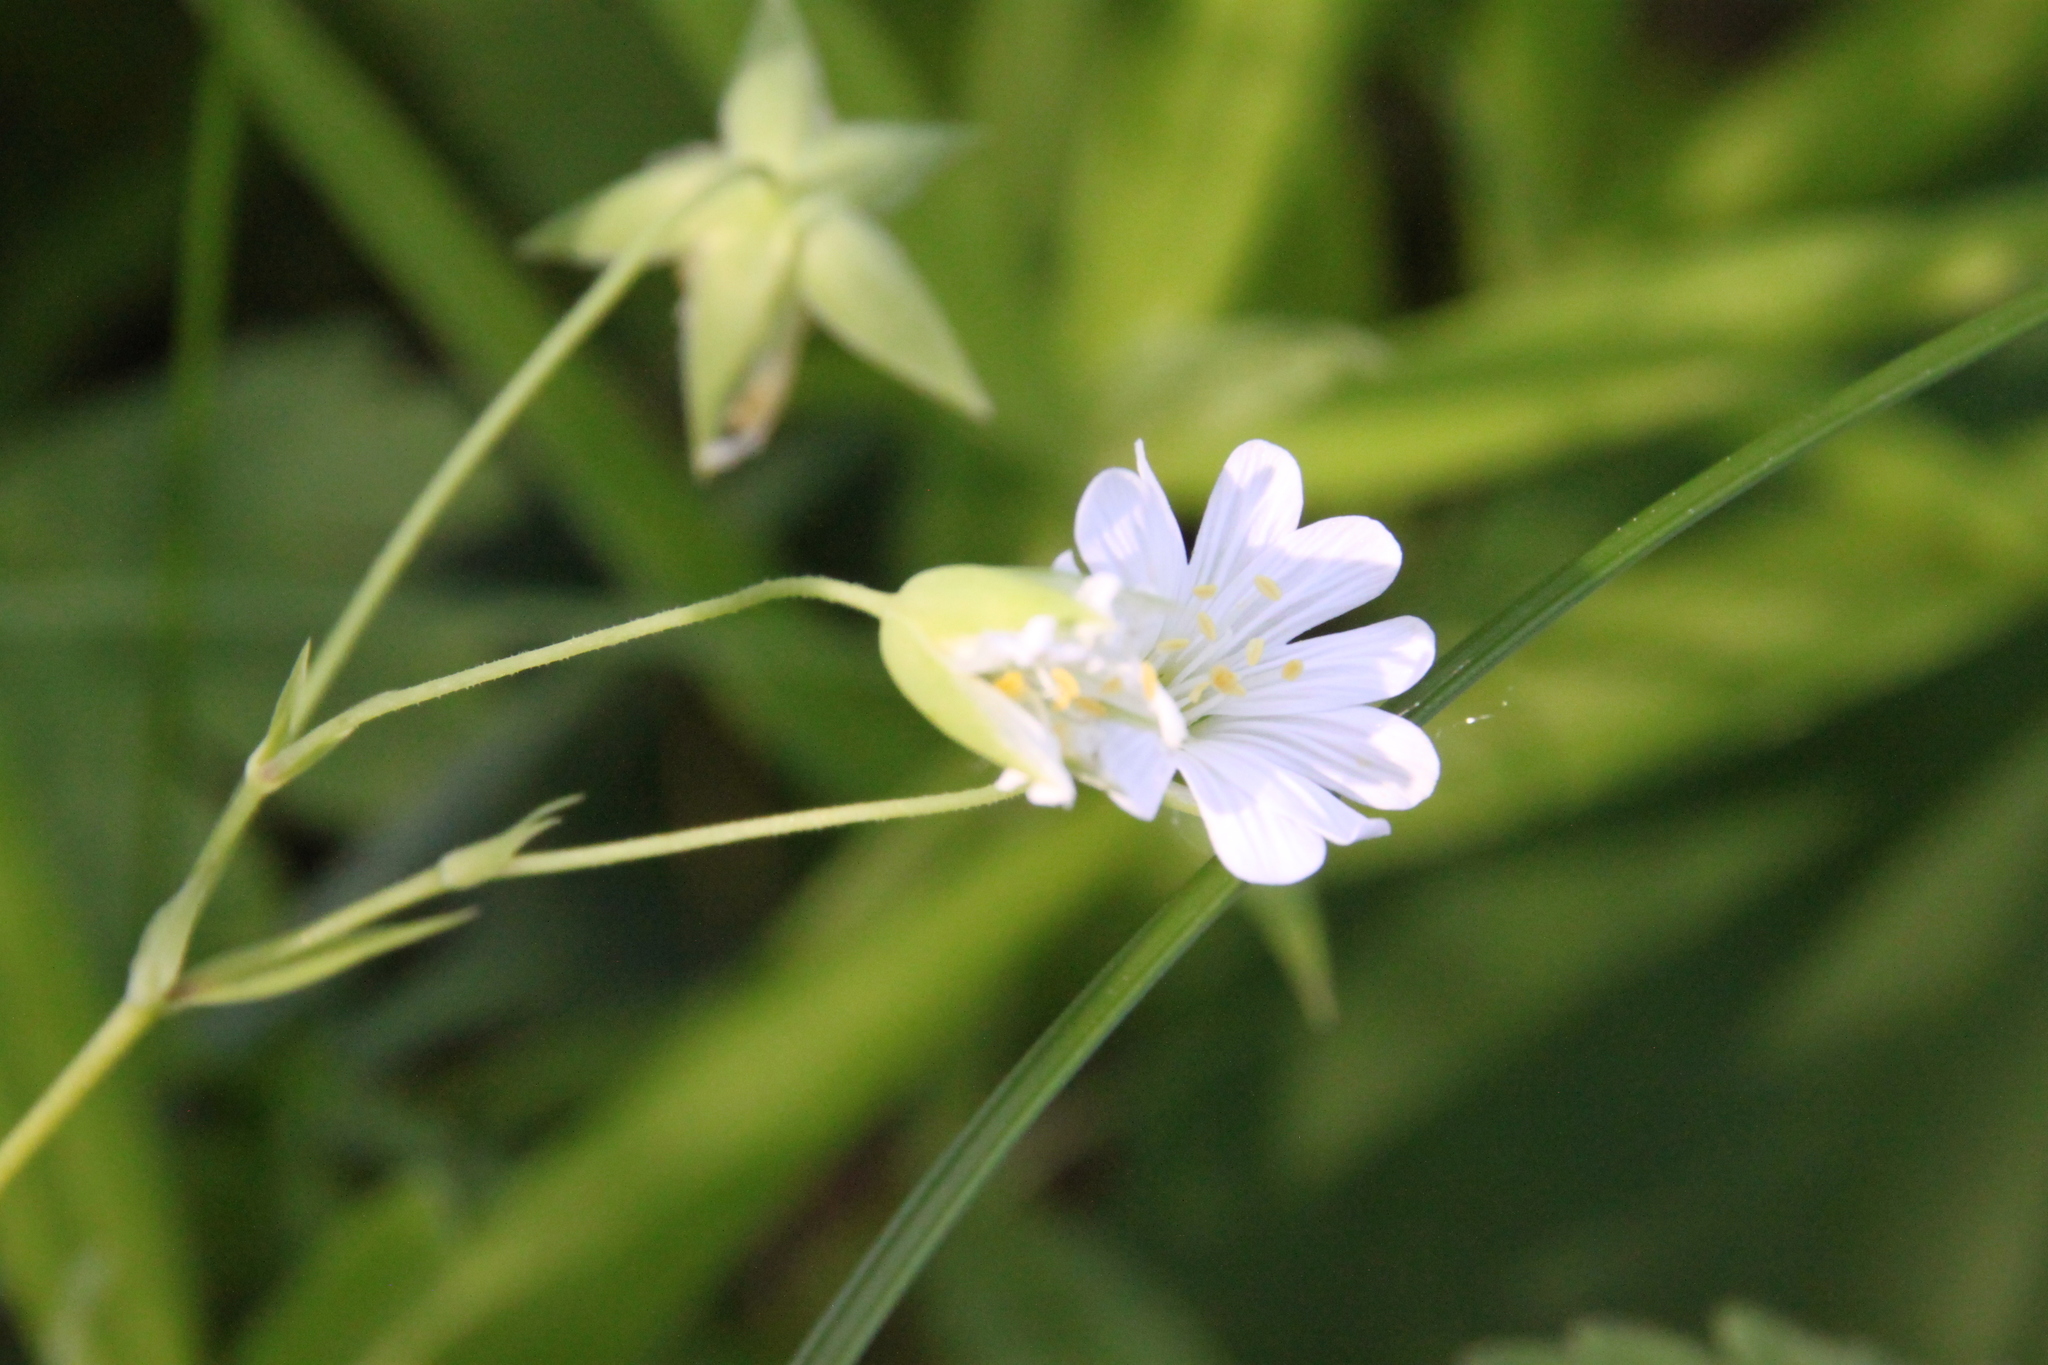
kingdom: Plantae
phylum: Tracheophyta
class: Magnoliopsida
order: Caryophyllales
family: Caryophyllaceae
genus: Rabelera
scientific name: Rabelera holostea
